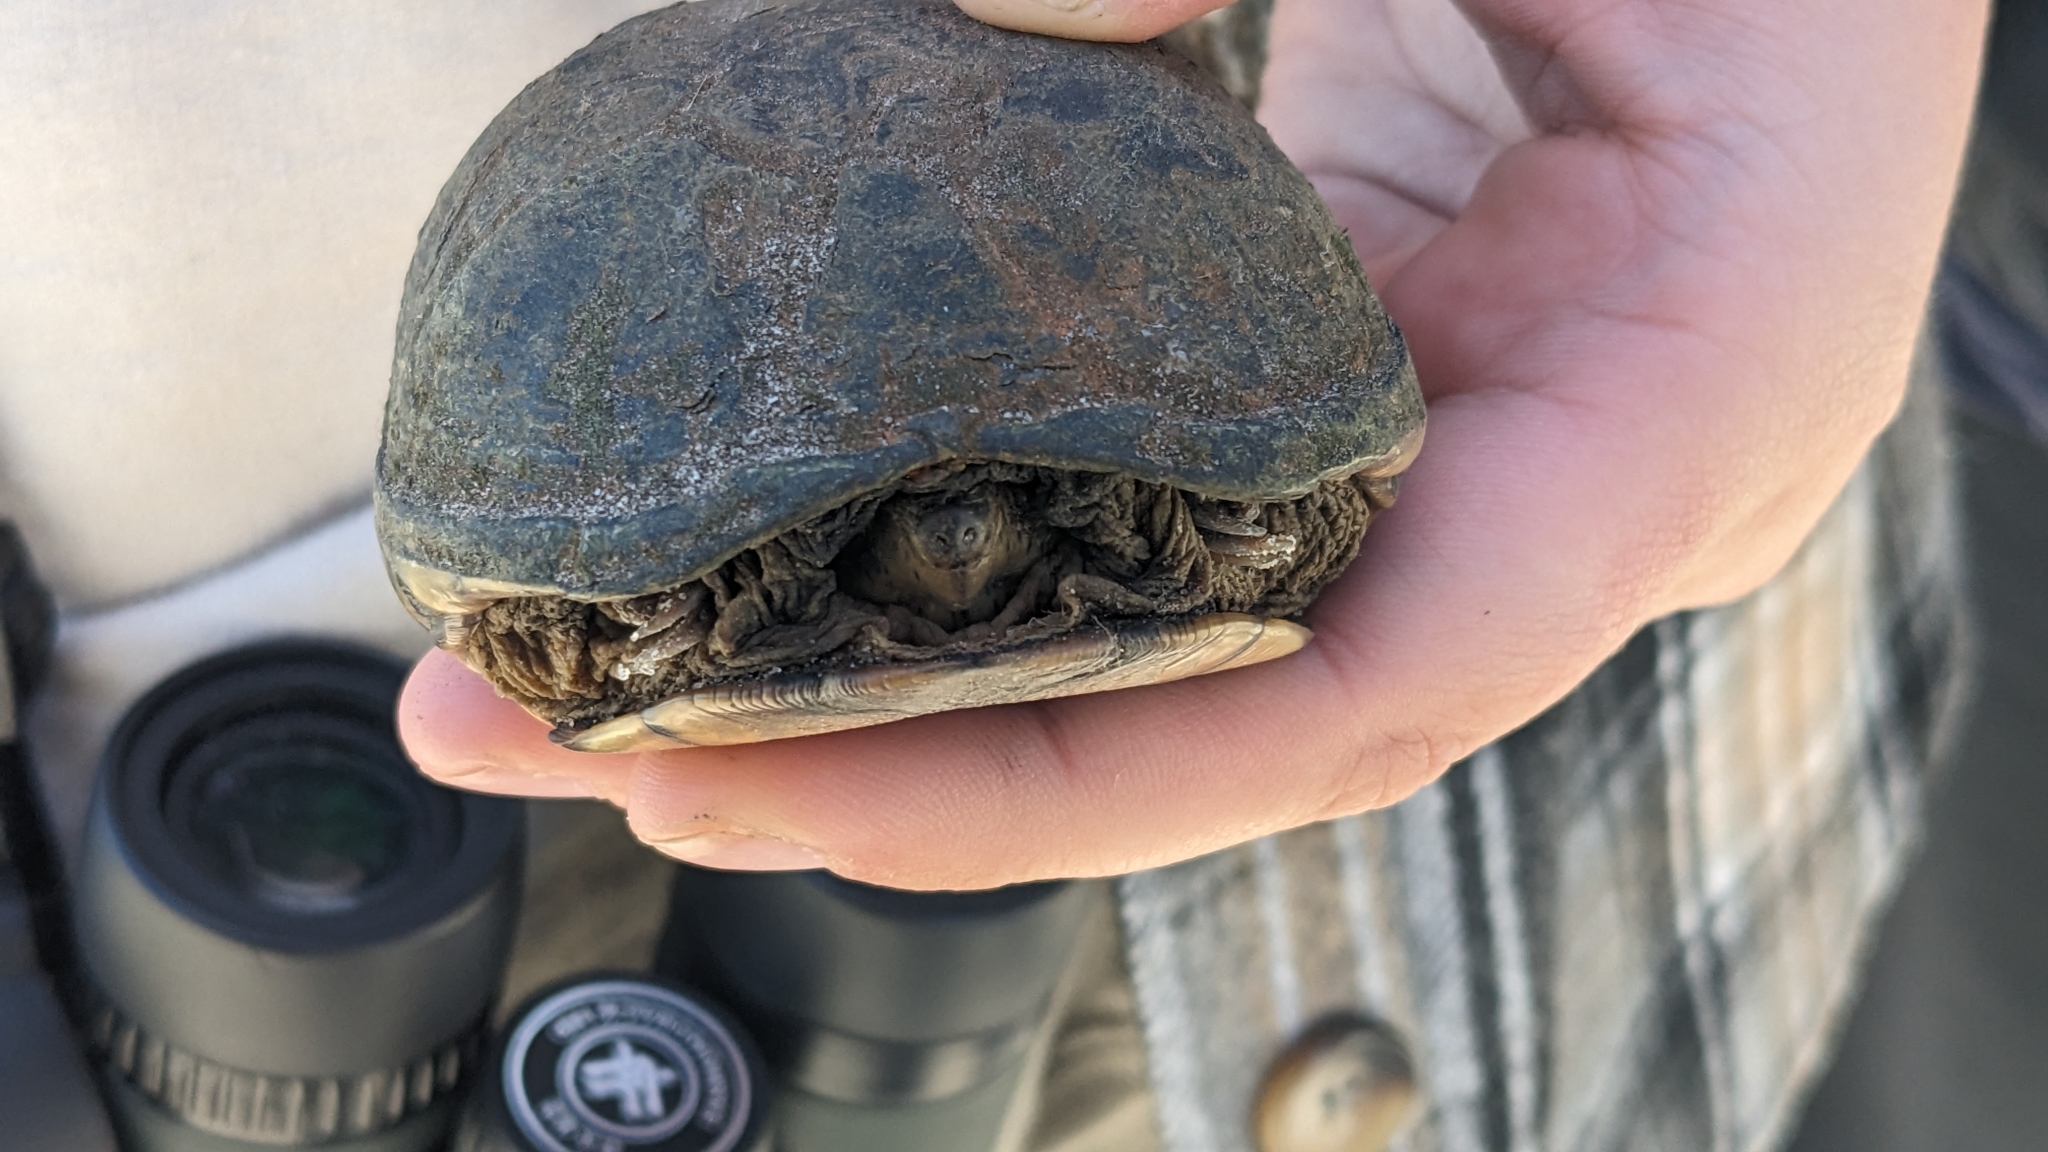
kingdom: Animalia
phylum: Chordata
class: Testudines
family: Kinosternidae
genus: Kinosternon
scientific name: Kinosternon subrubrum
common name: Eastern mud turtle
